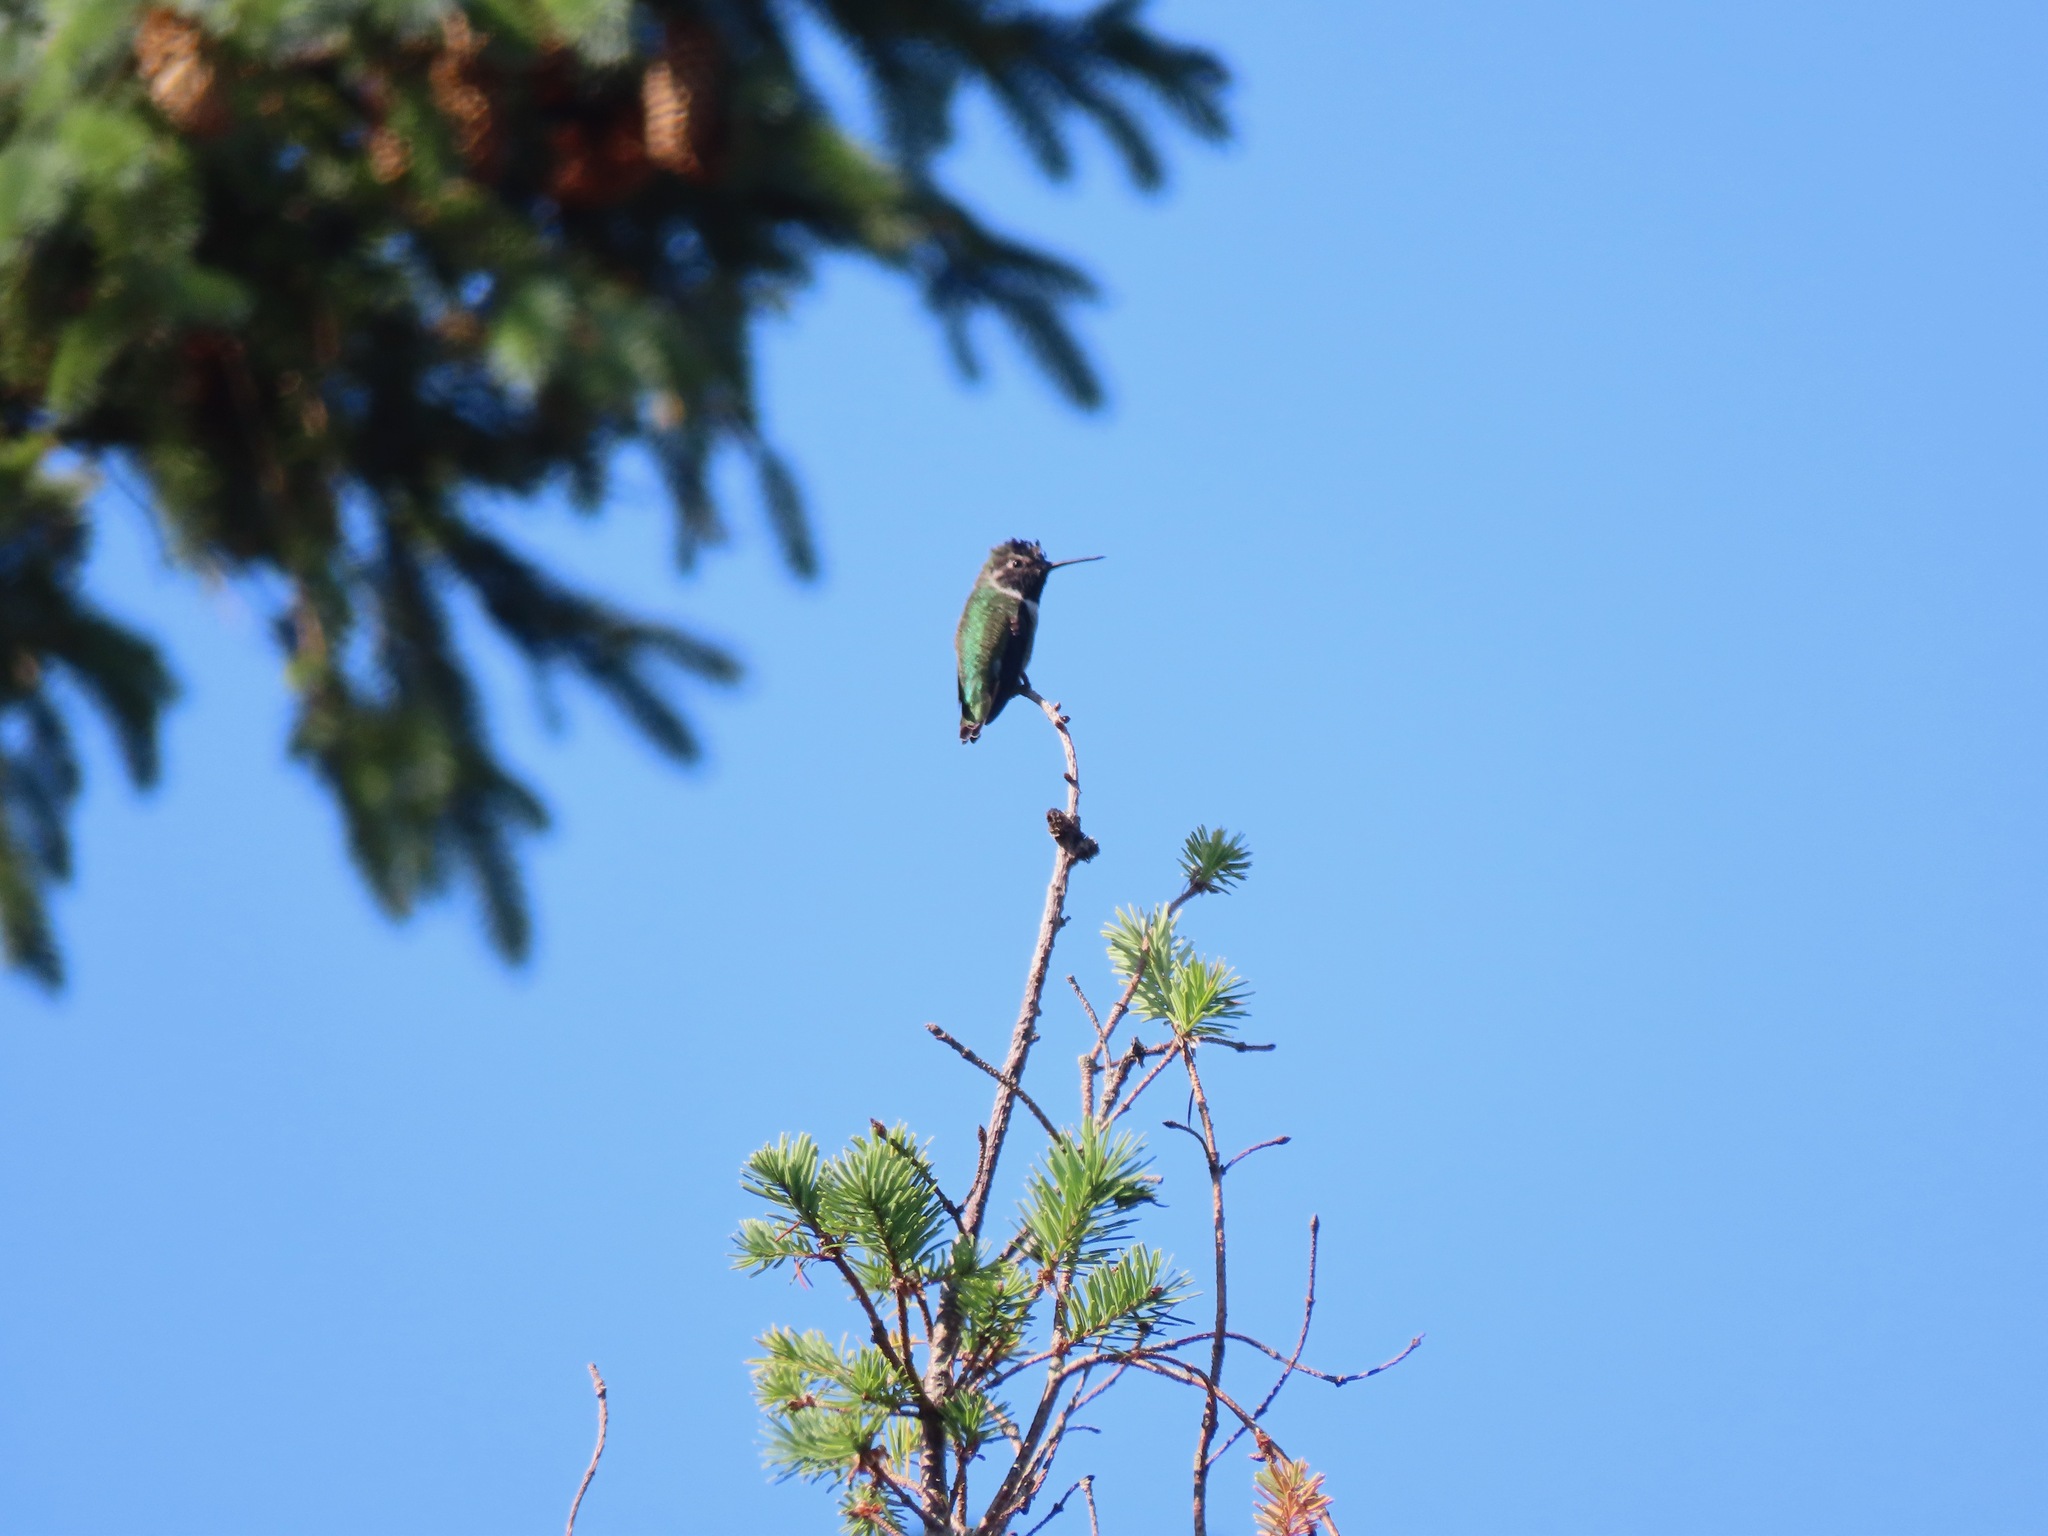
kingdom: Animalia
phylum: Chordata
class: Aves
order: Apodiformes
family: Trochilidae
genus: Calypte
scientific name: Calypte anna
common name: Anna's hummingbird
